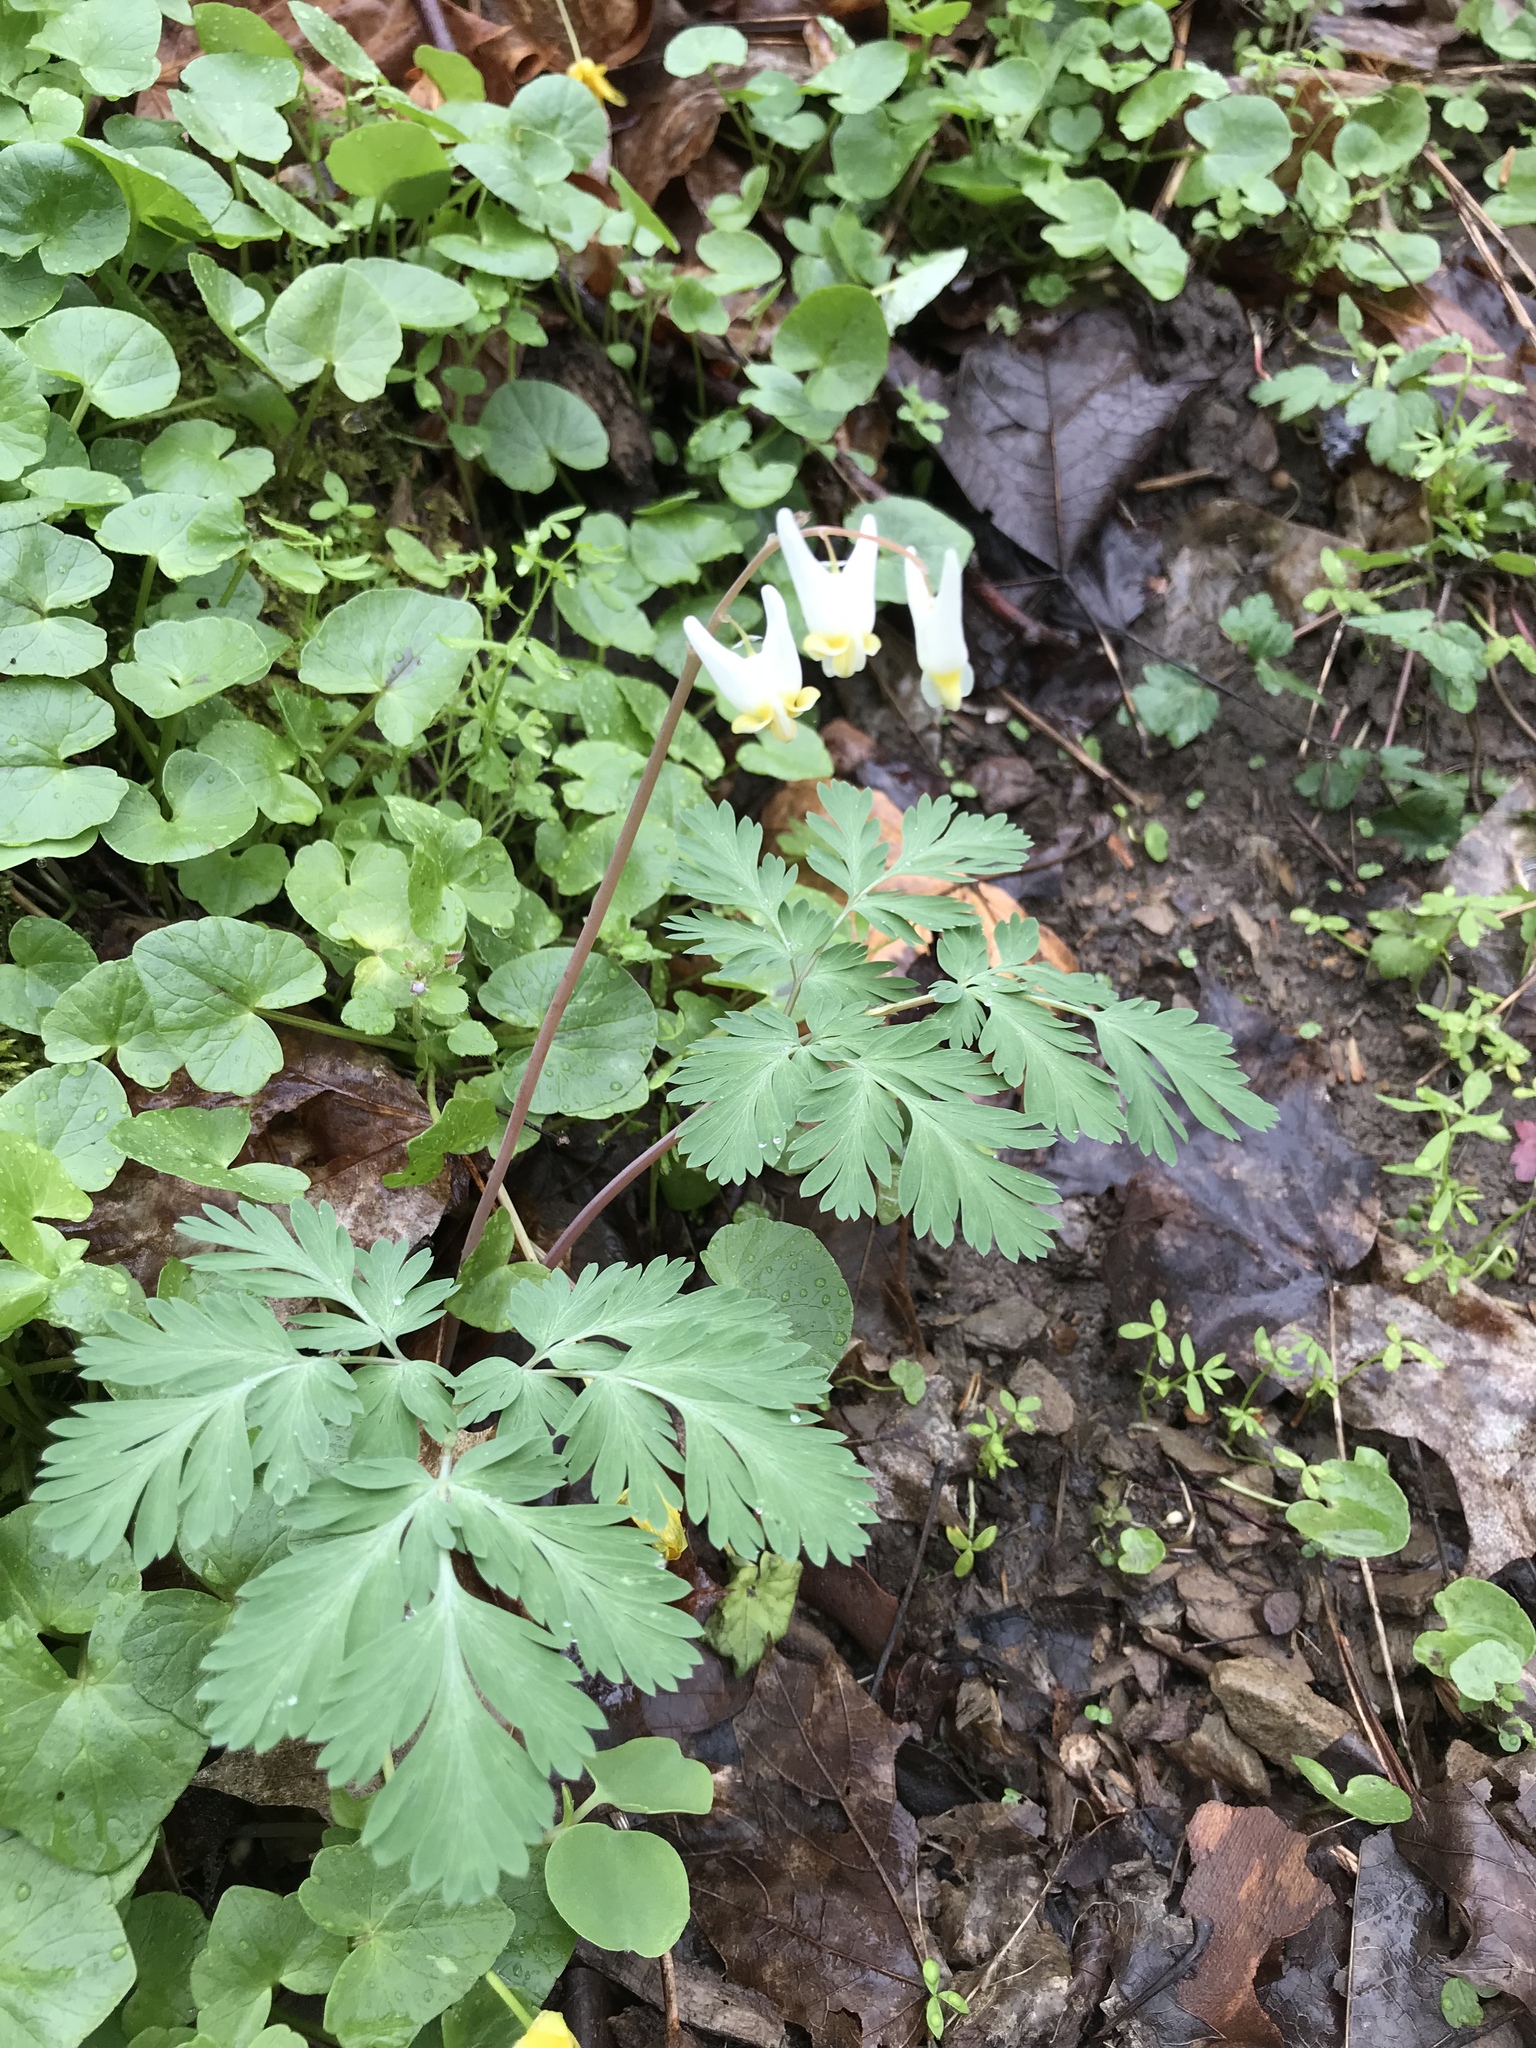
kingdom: Plantae
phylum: Tracheophyta
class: Magnoliopsida
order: Ranunculales
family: Papaveraceae
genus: Dicentra
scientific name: Dicentra cucullaria
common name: Dutchman's breeches
